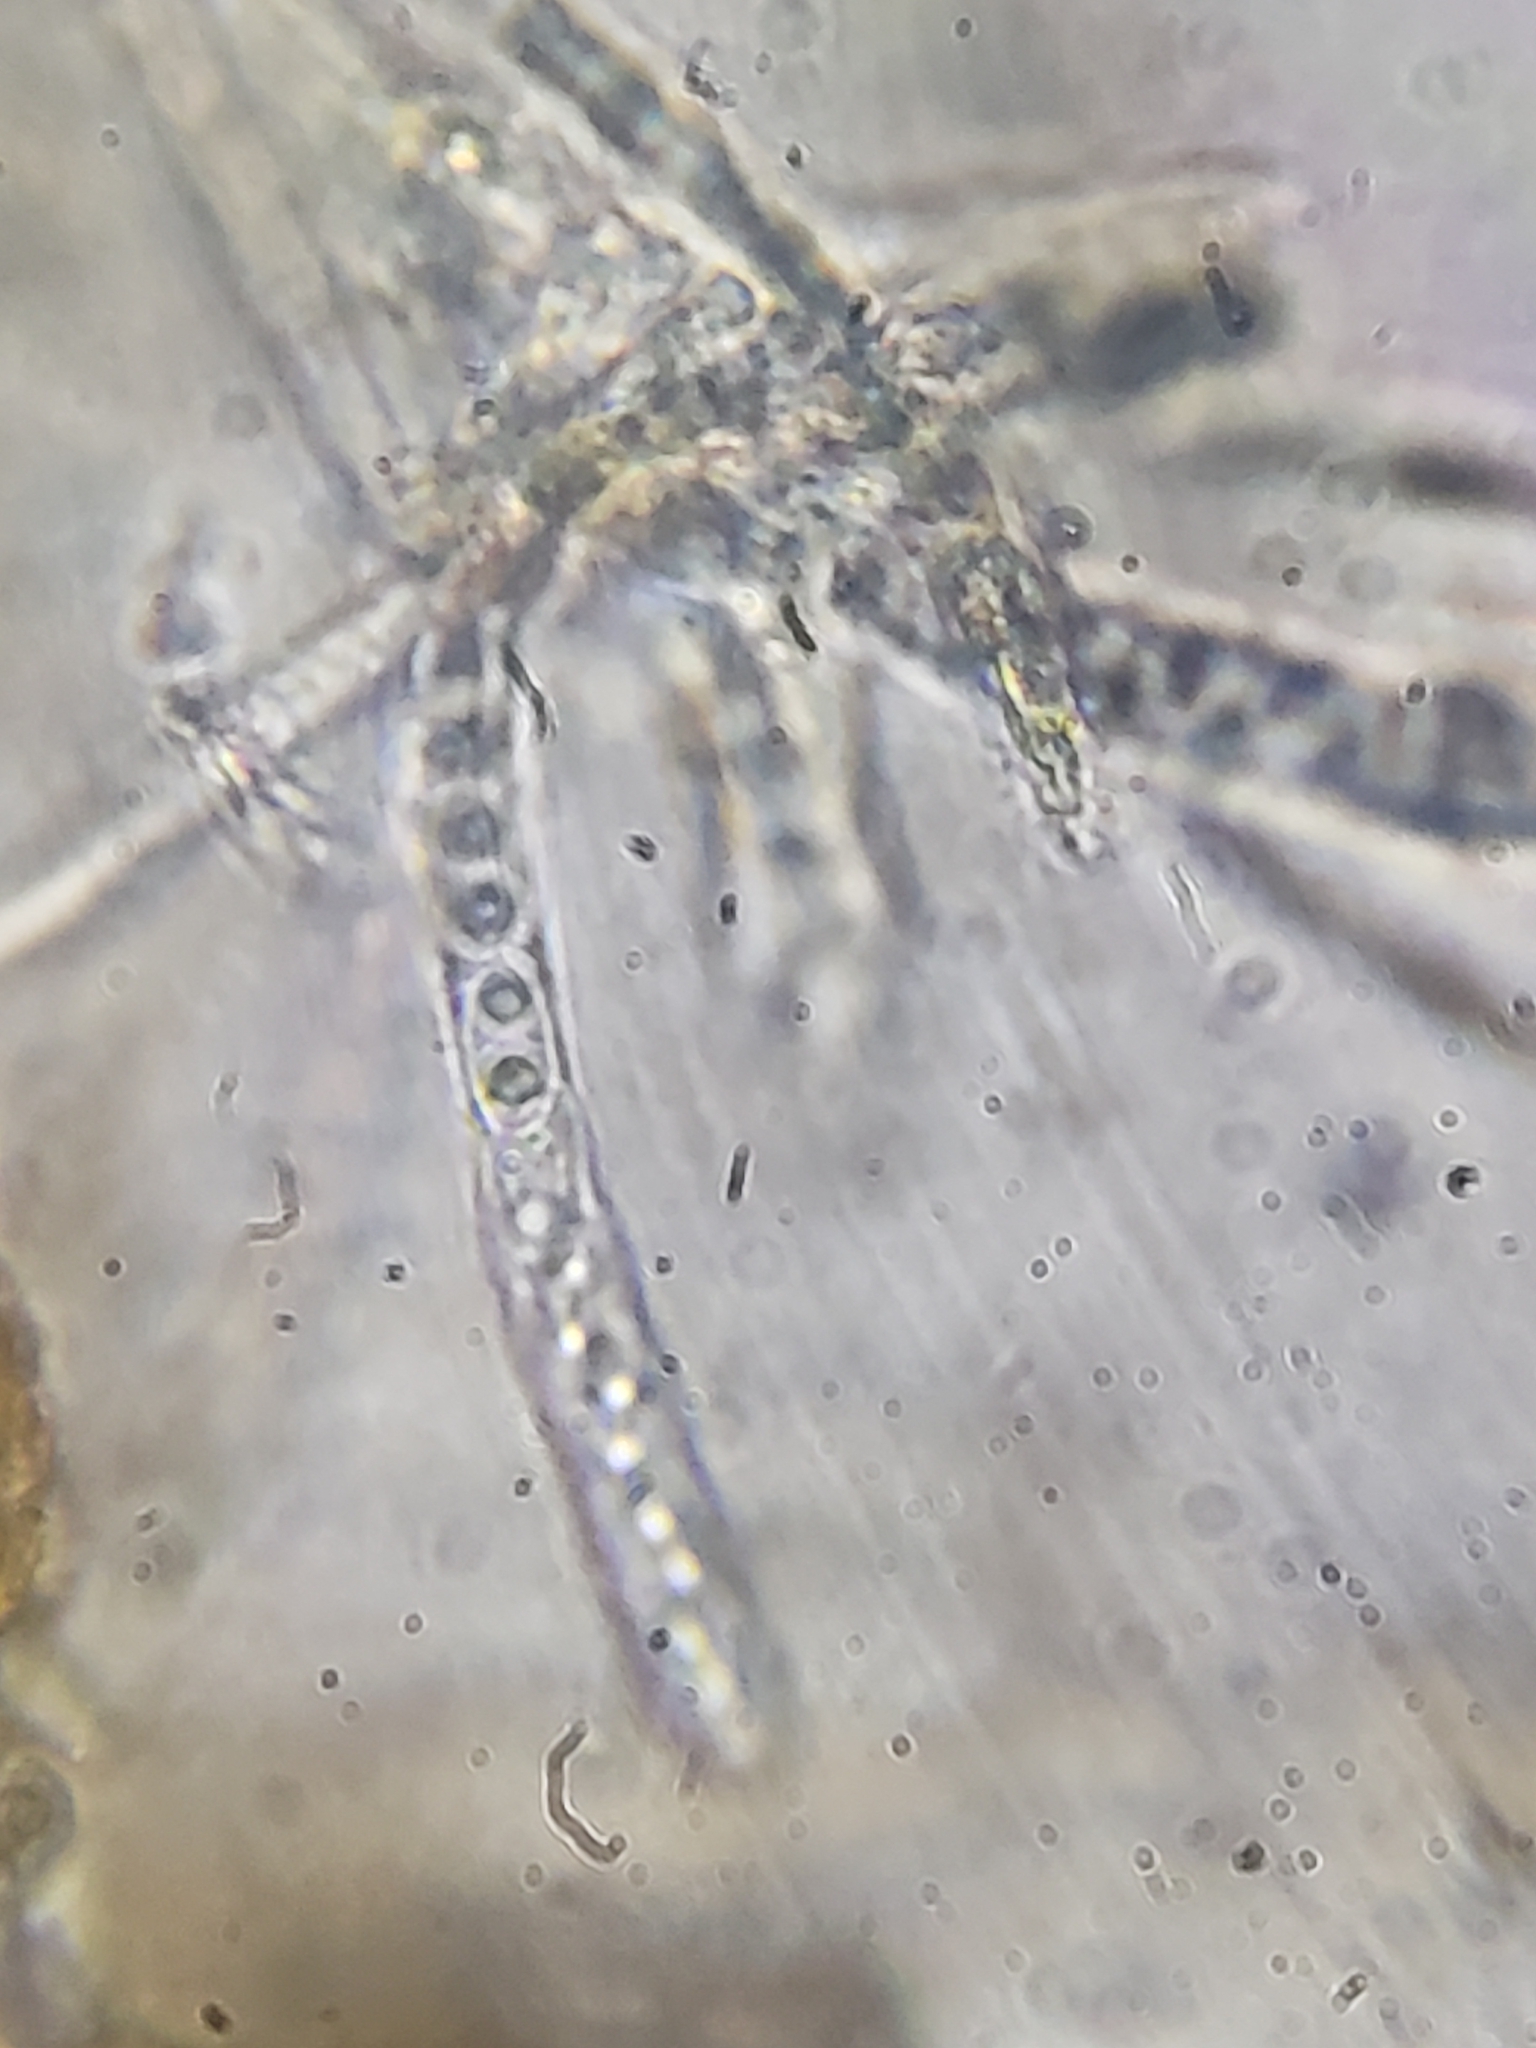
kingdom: Fungi
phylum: Ascomycota
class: Leotiomycetes
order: Helotiales
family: Cenangiaceae
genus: Chlorencoelia
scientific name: Chlorencoelia torta
